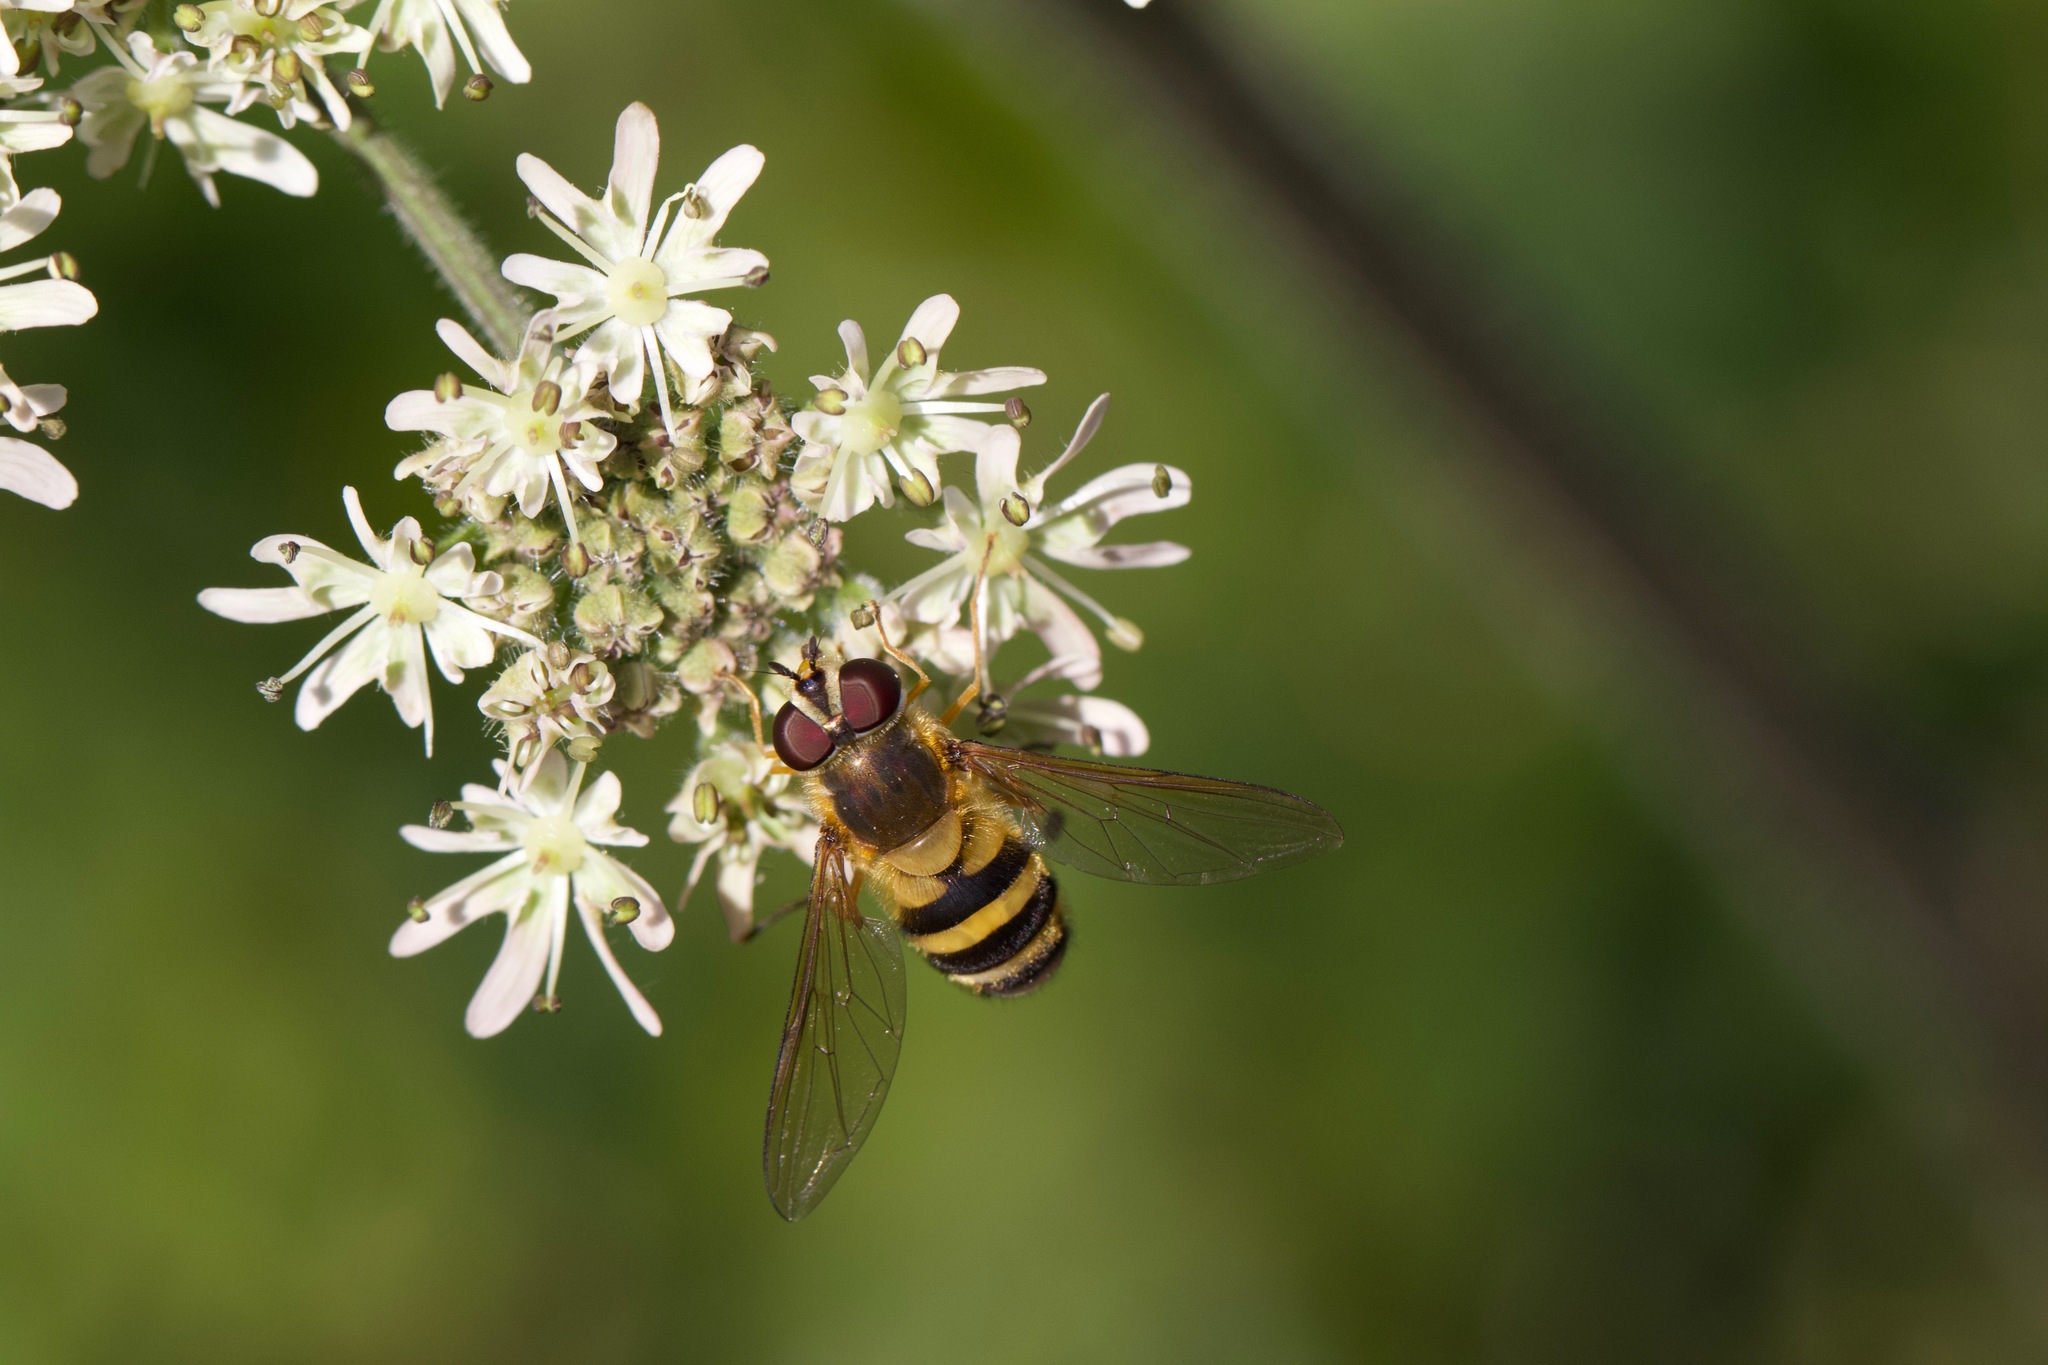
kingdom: Animalia
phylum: Arthropoda
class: Insecta
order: Diptera
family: Syrphidae
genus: Epistrophe
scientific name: Epistrophe grossulariae
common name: Black-horned smoothtail
